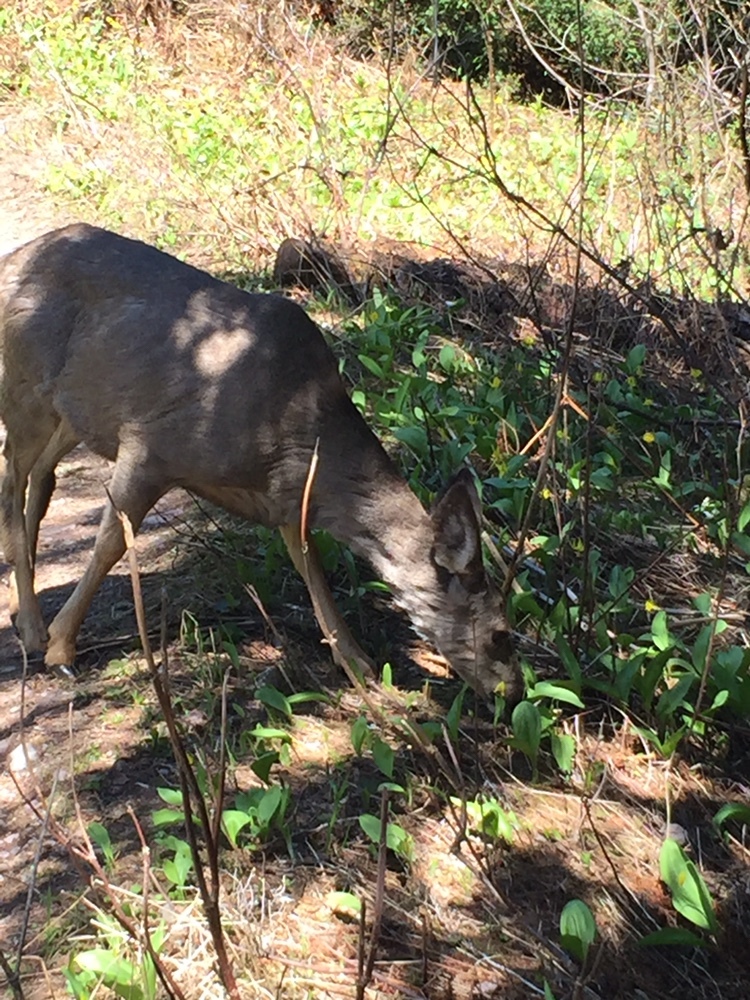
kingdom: Animalia
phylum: Chordata
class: Mammalia
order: Artiodactyla
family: Cervidae
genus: Odocoileus
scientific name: Odocoileus hemionus
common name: Mule deer
